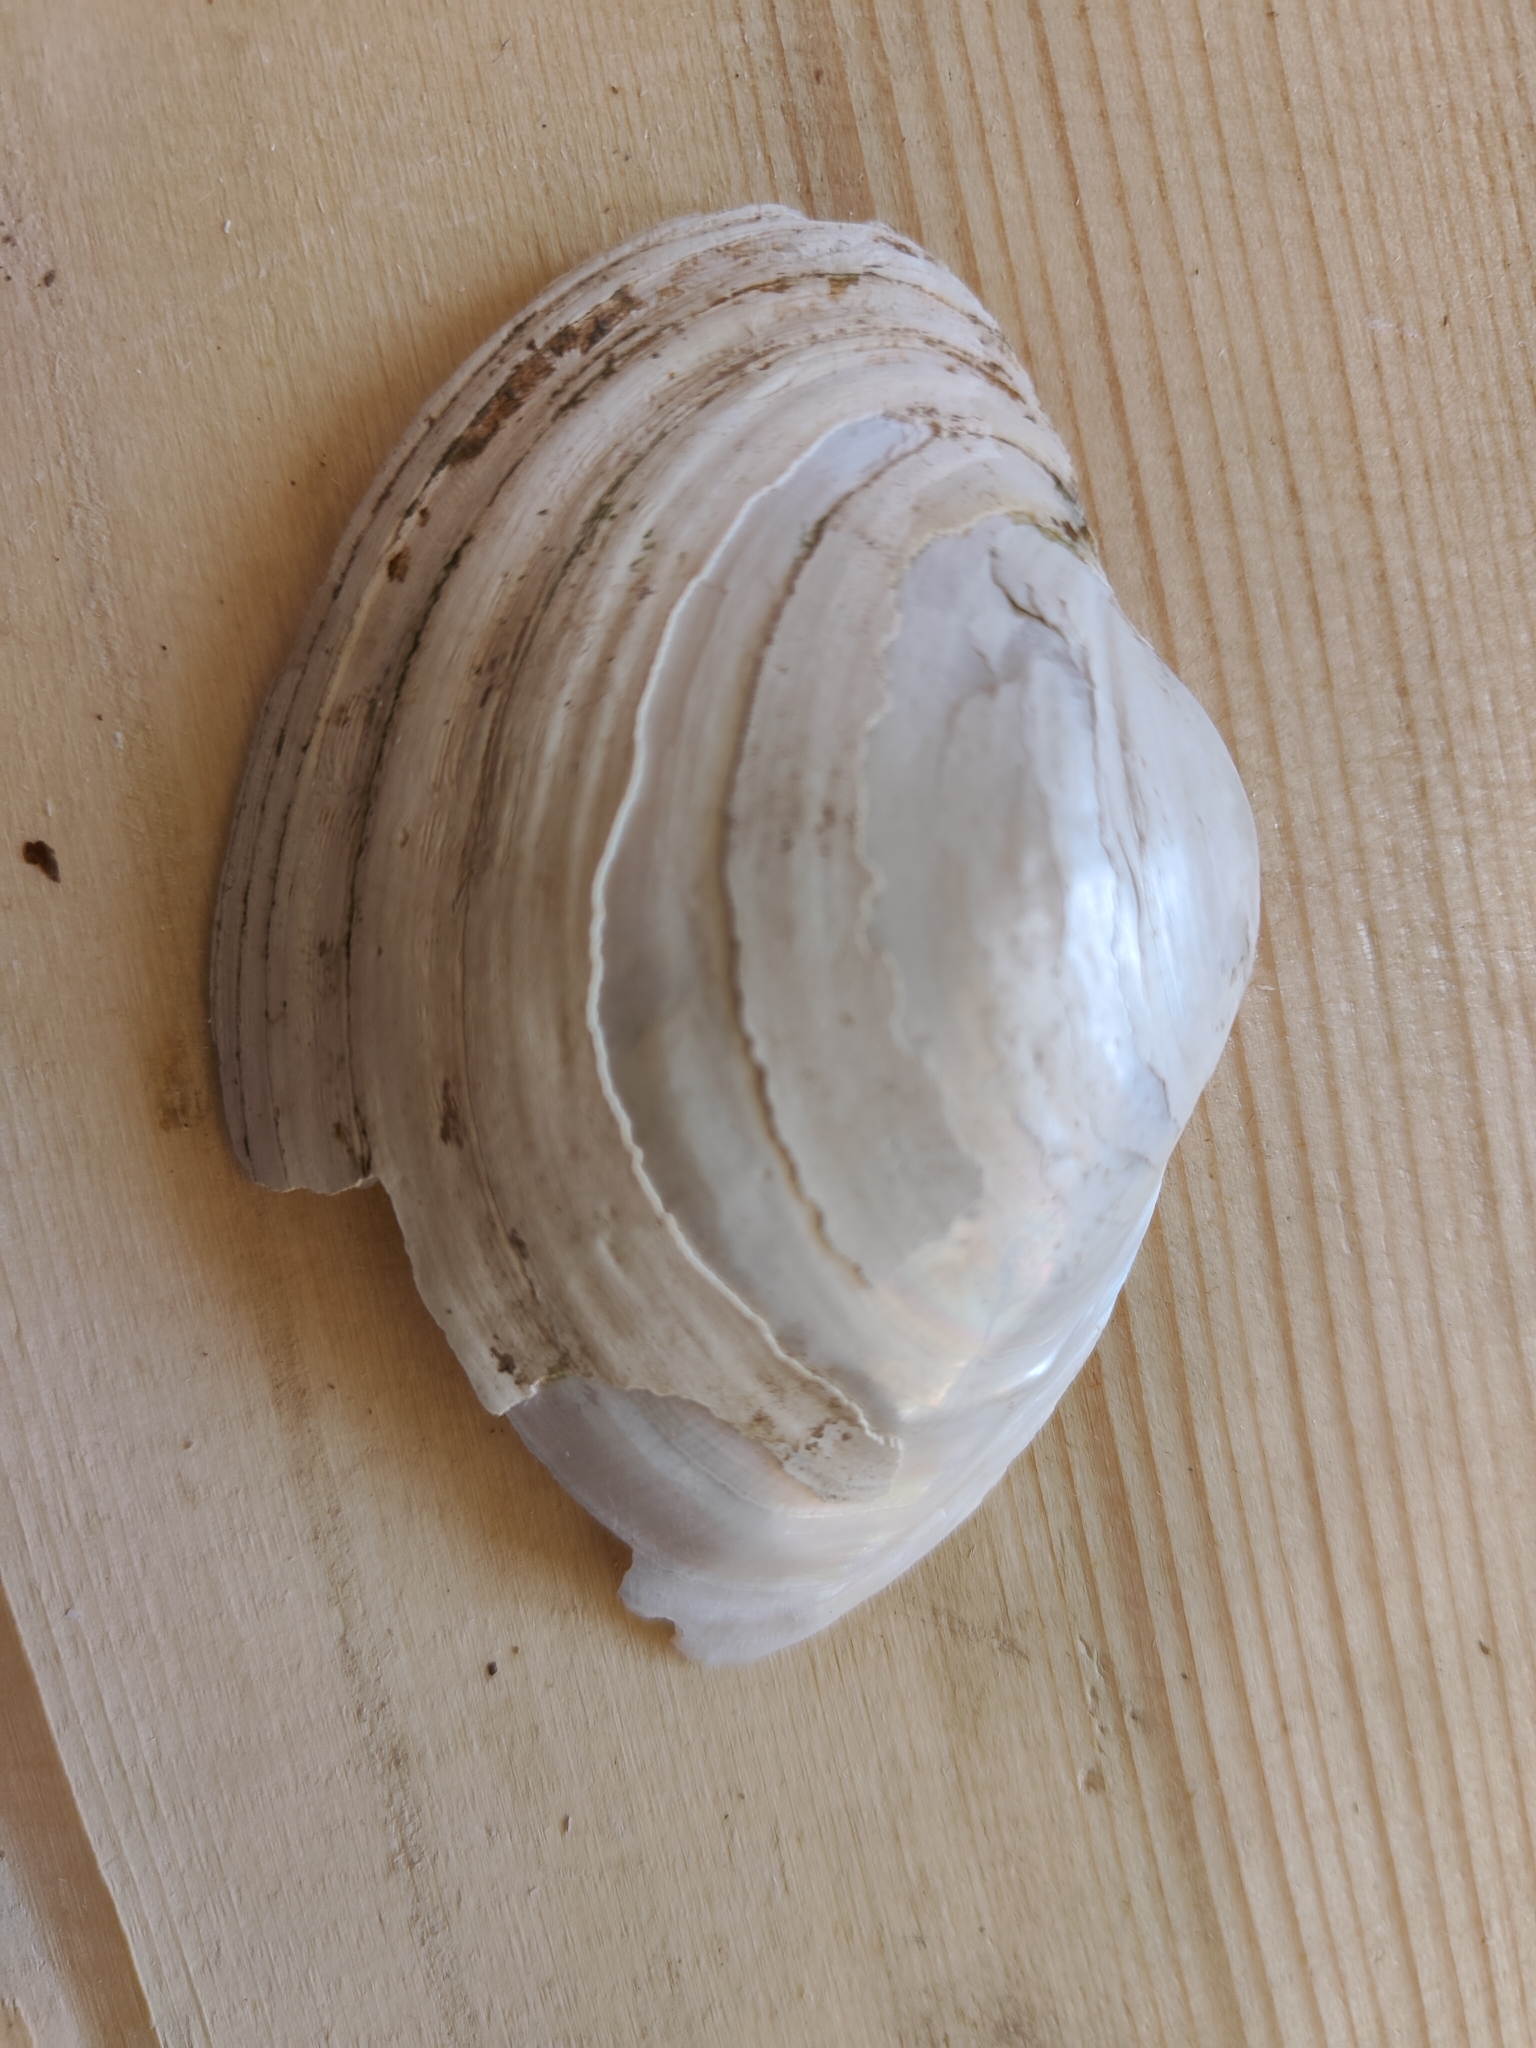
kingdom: Animalia
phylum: Mollusca
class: Bivalvia
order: Unionida
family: Unionidae
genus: Lampsilis
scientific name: Lampsilis cardium
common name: Plain pocketbook
